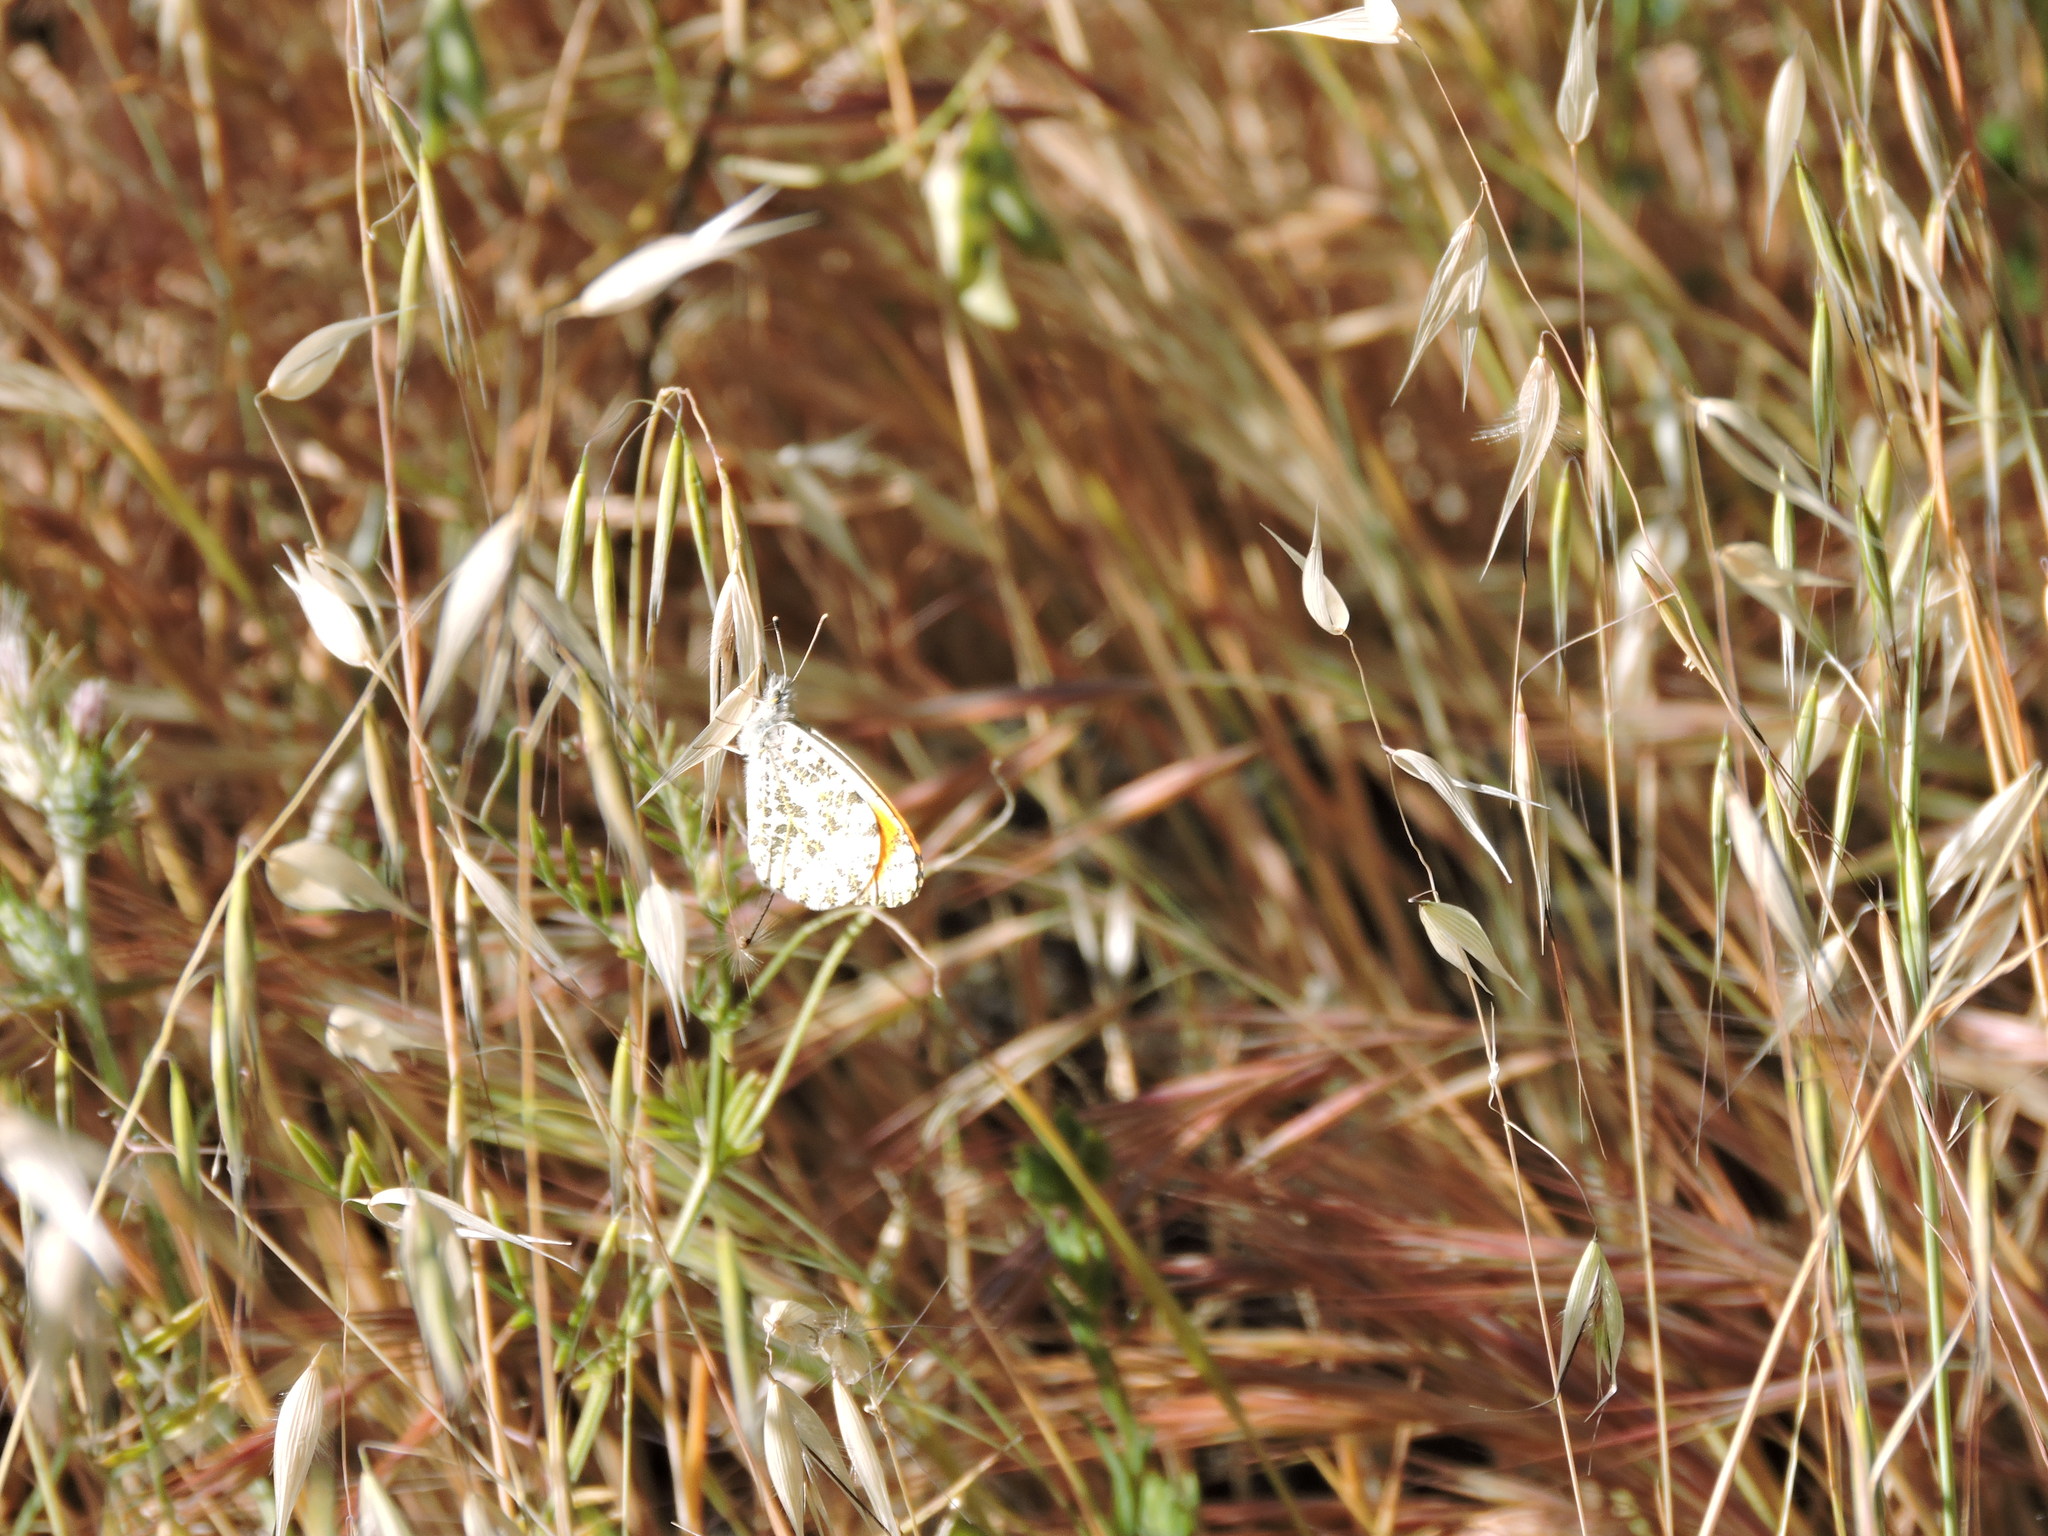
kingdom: Animalia
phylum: Arthropoda
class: Insecta
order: Lepidoptera
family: Pieridae
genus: Anthocharis
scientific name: Anthocharis sara
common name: Sara's orangetip
